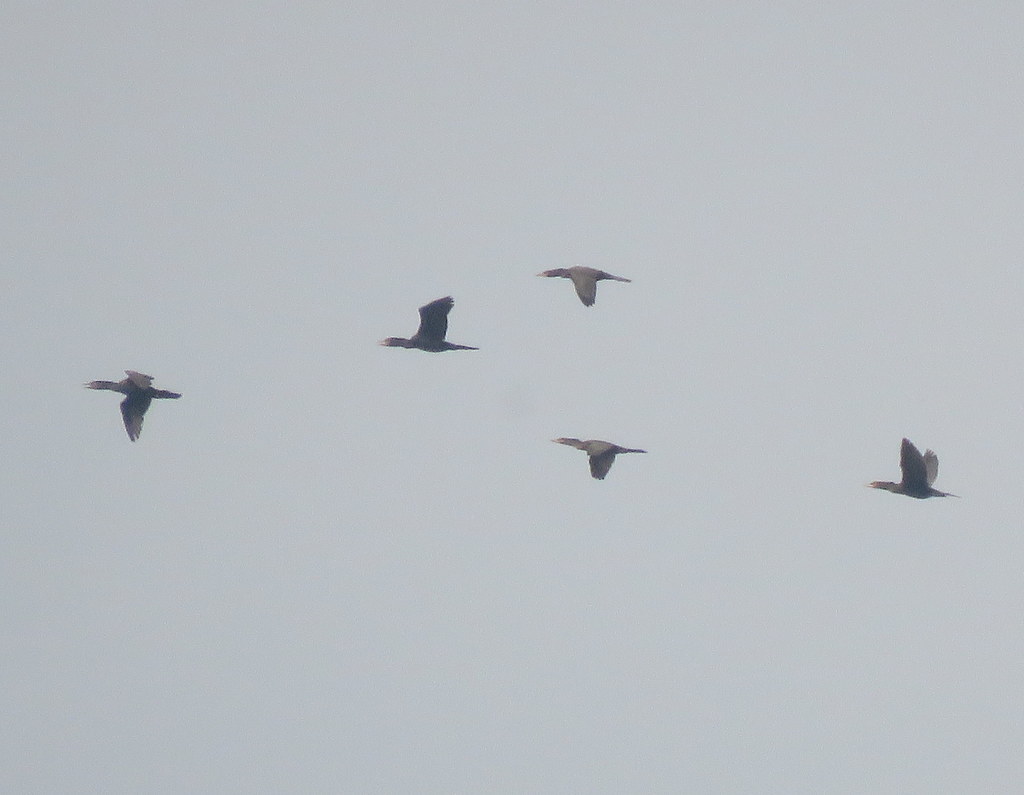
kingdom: Animalia
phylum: Chordata
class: Aves
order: Suliformes
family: Phalacrocoracidae
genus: Phalacrocorax
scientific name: Phalacrocorax brasilianus
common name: Neotropic cormorant
